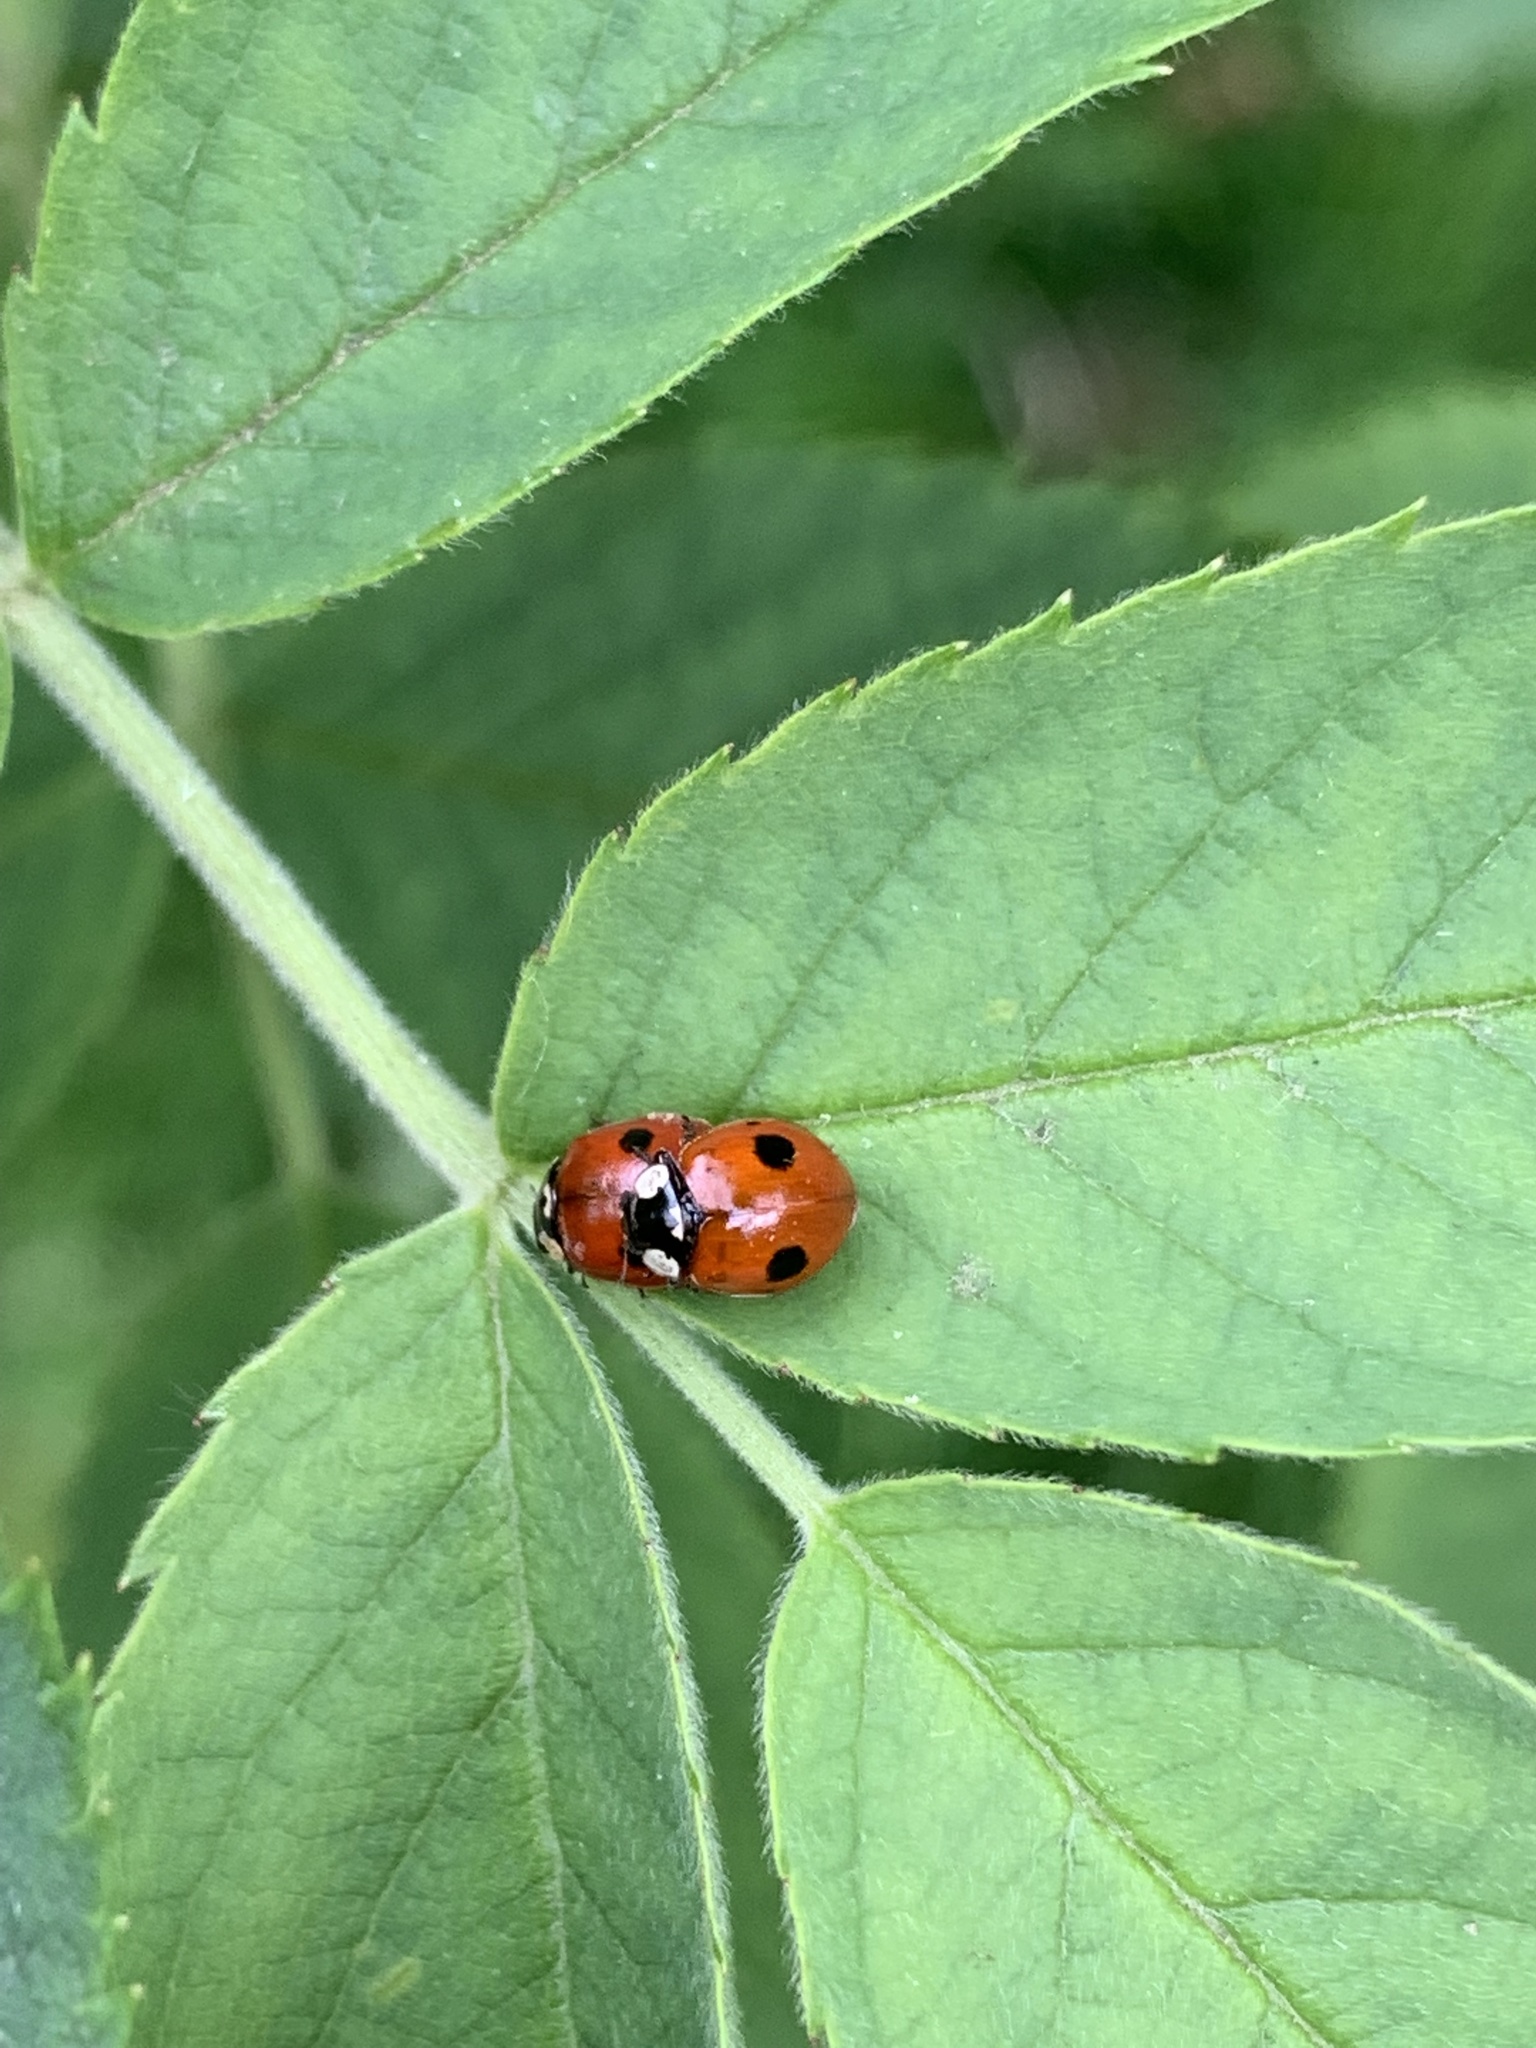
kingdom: Animalia
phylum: Arthropoda
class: Insecta
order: Coleoptera
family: Coccinellidae
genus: Adalia
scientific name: Adalia bipunctata
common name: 2-spot ladybird
